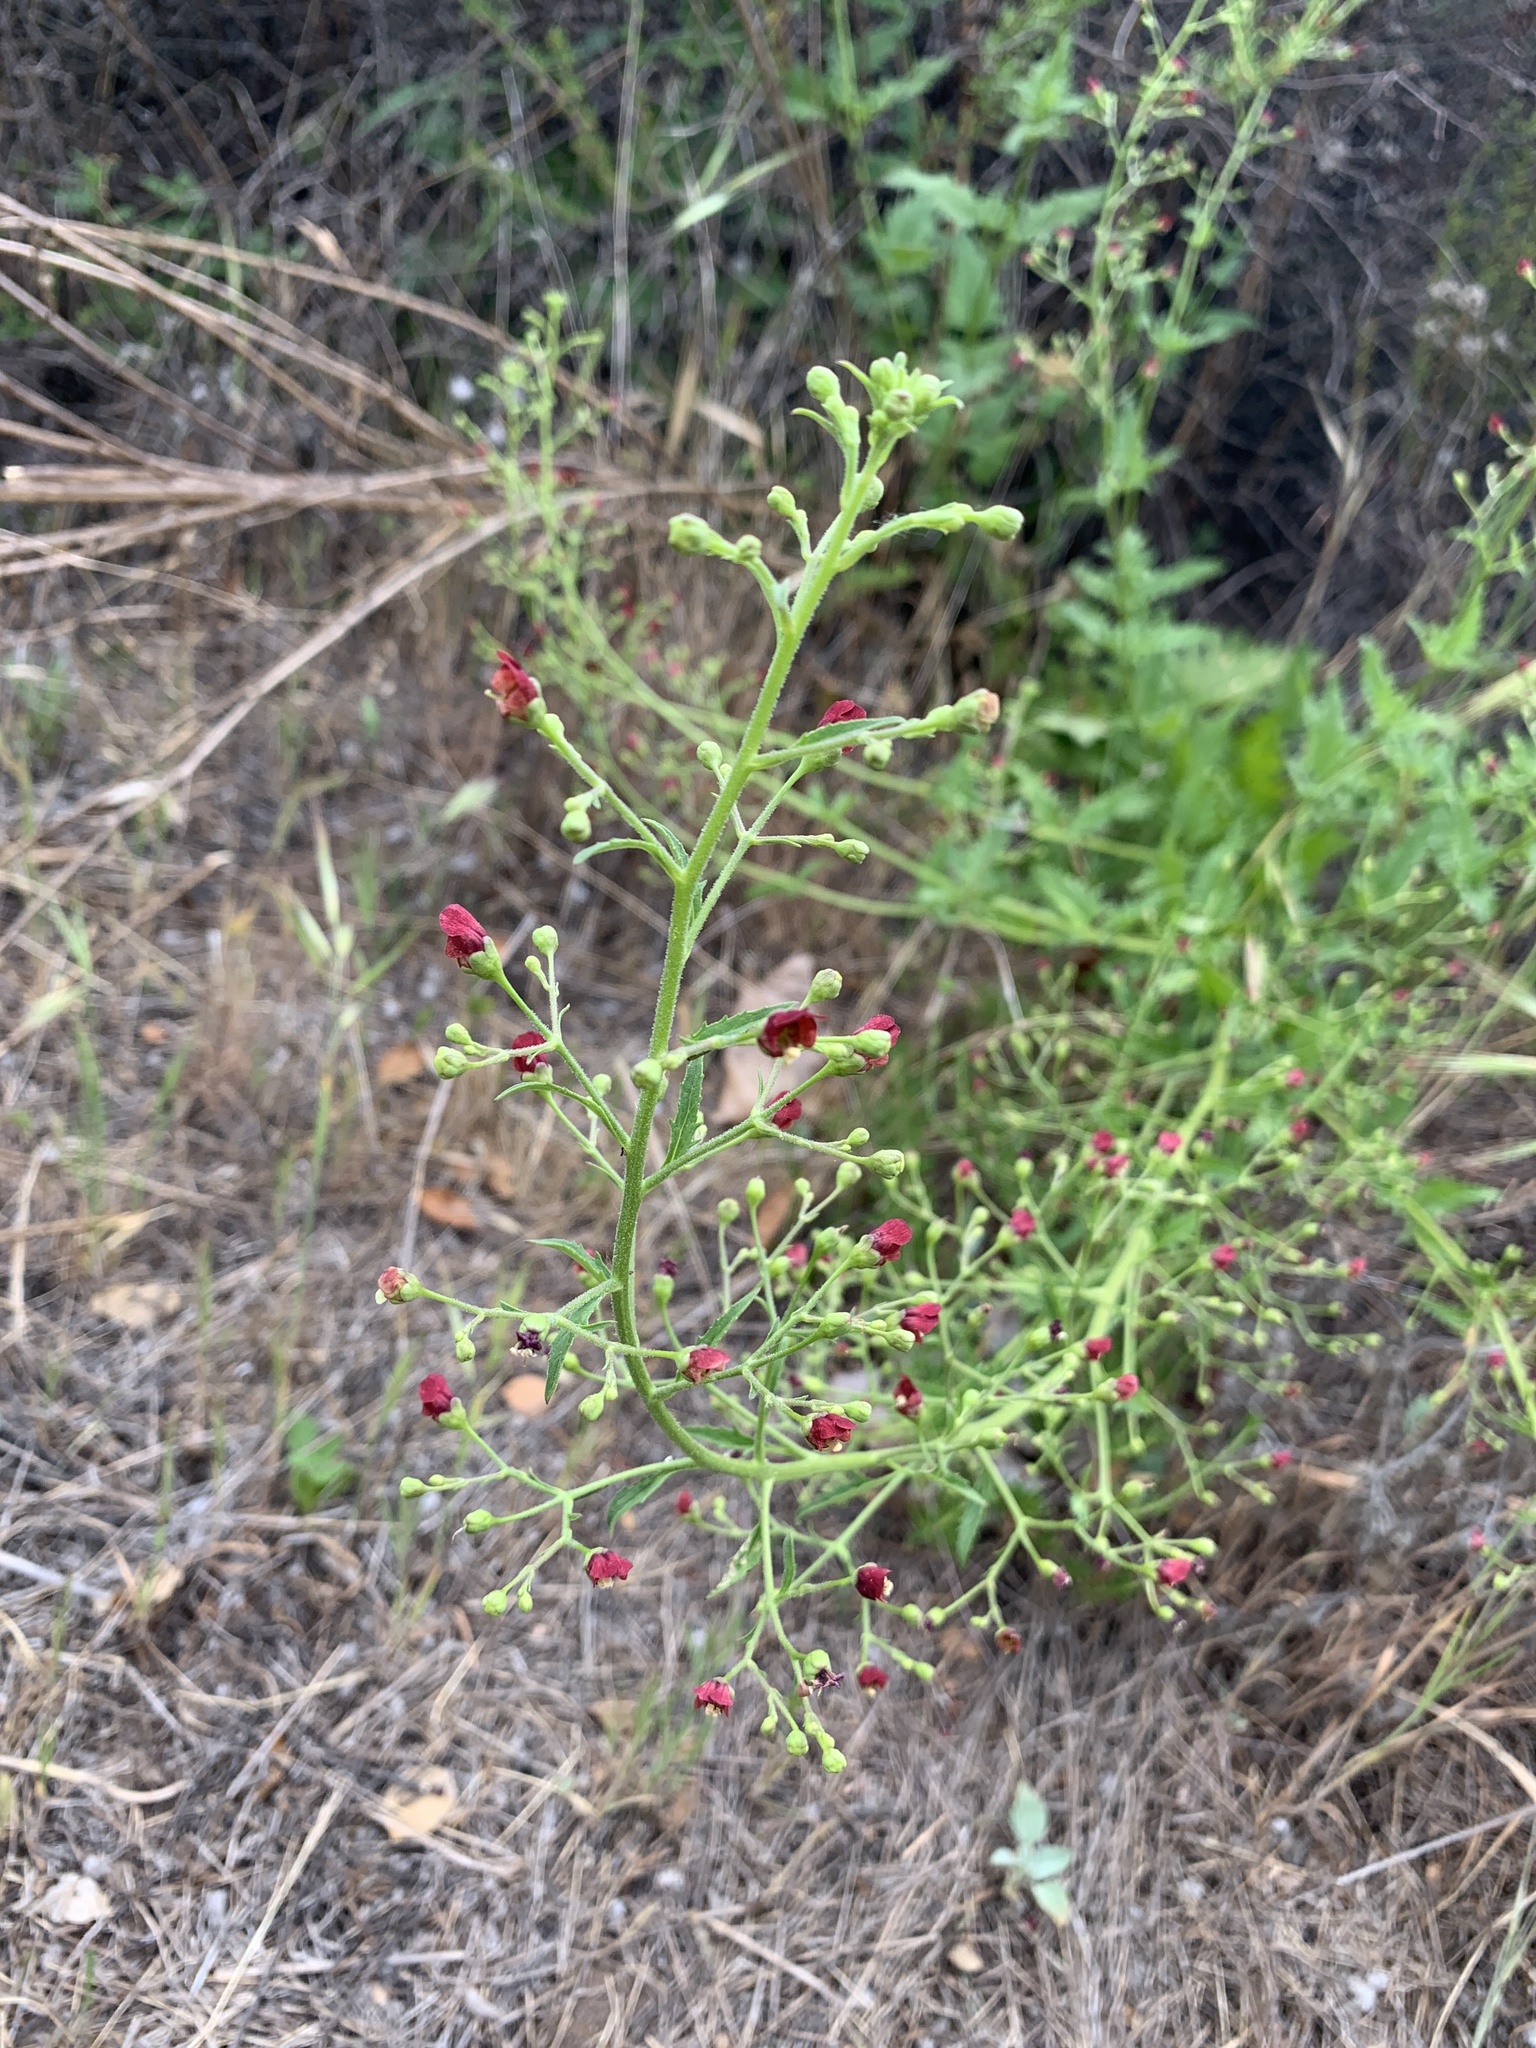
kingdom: Plantae
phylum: Tracheophyta
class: Magnoliopsida
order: Lamiales
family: Scrophulariaceae
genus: Scrophularia
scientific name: Scrophularia californica
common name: California figwort
